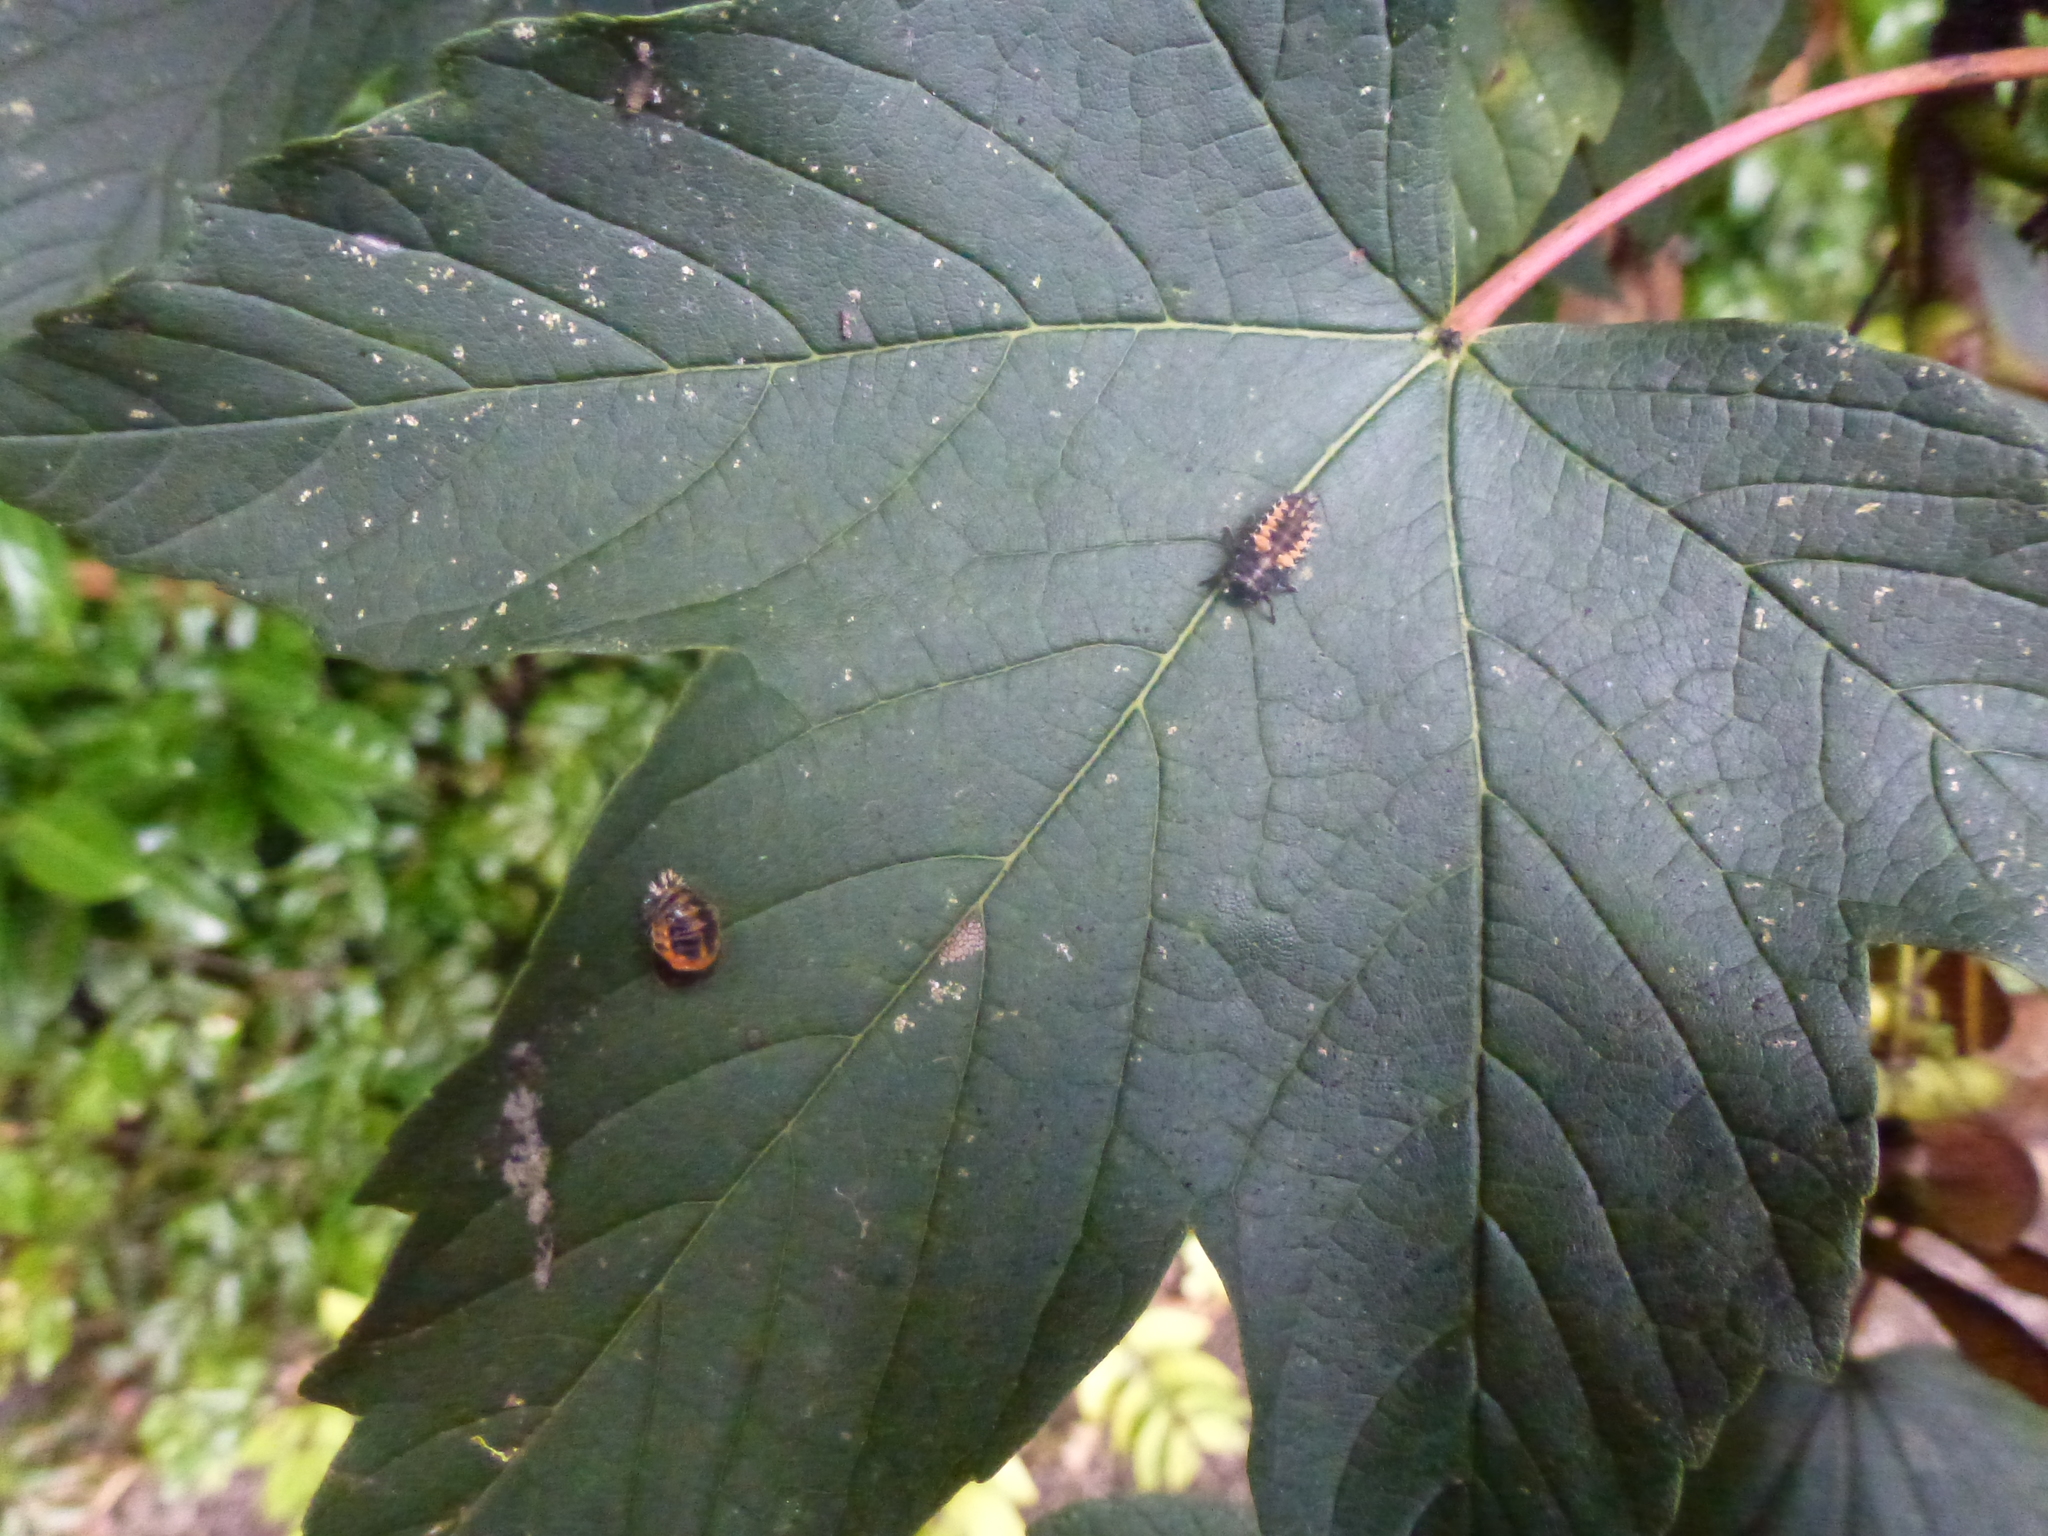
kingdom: Animalia
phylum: Arthropoda
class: Insecta
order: Coleoptera
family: Coccinellidae
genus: Harmonia
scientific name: Harmonia axyridis
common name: Harlequin ladybird
